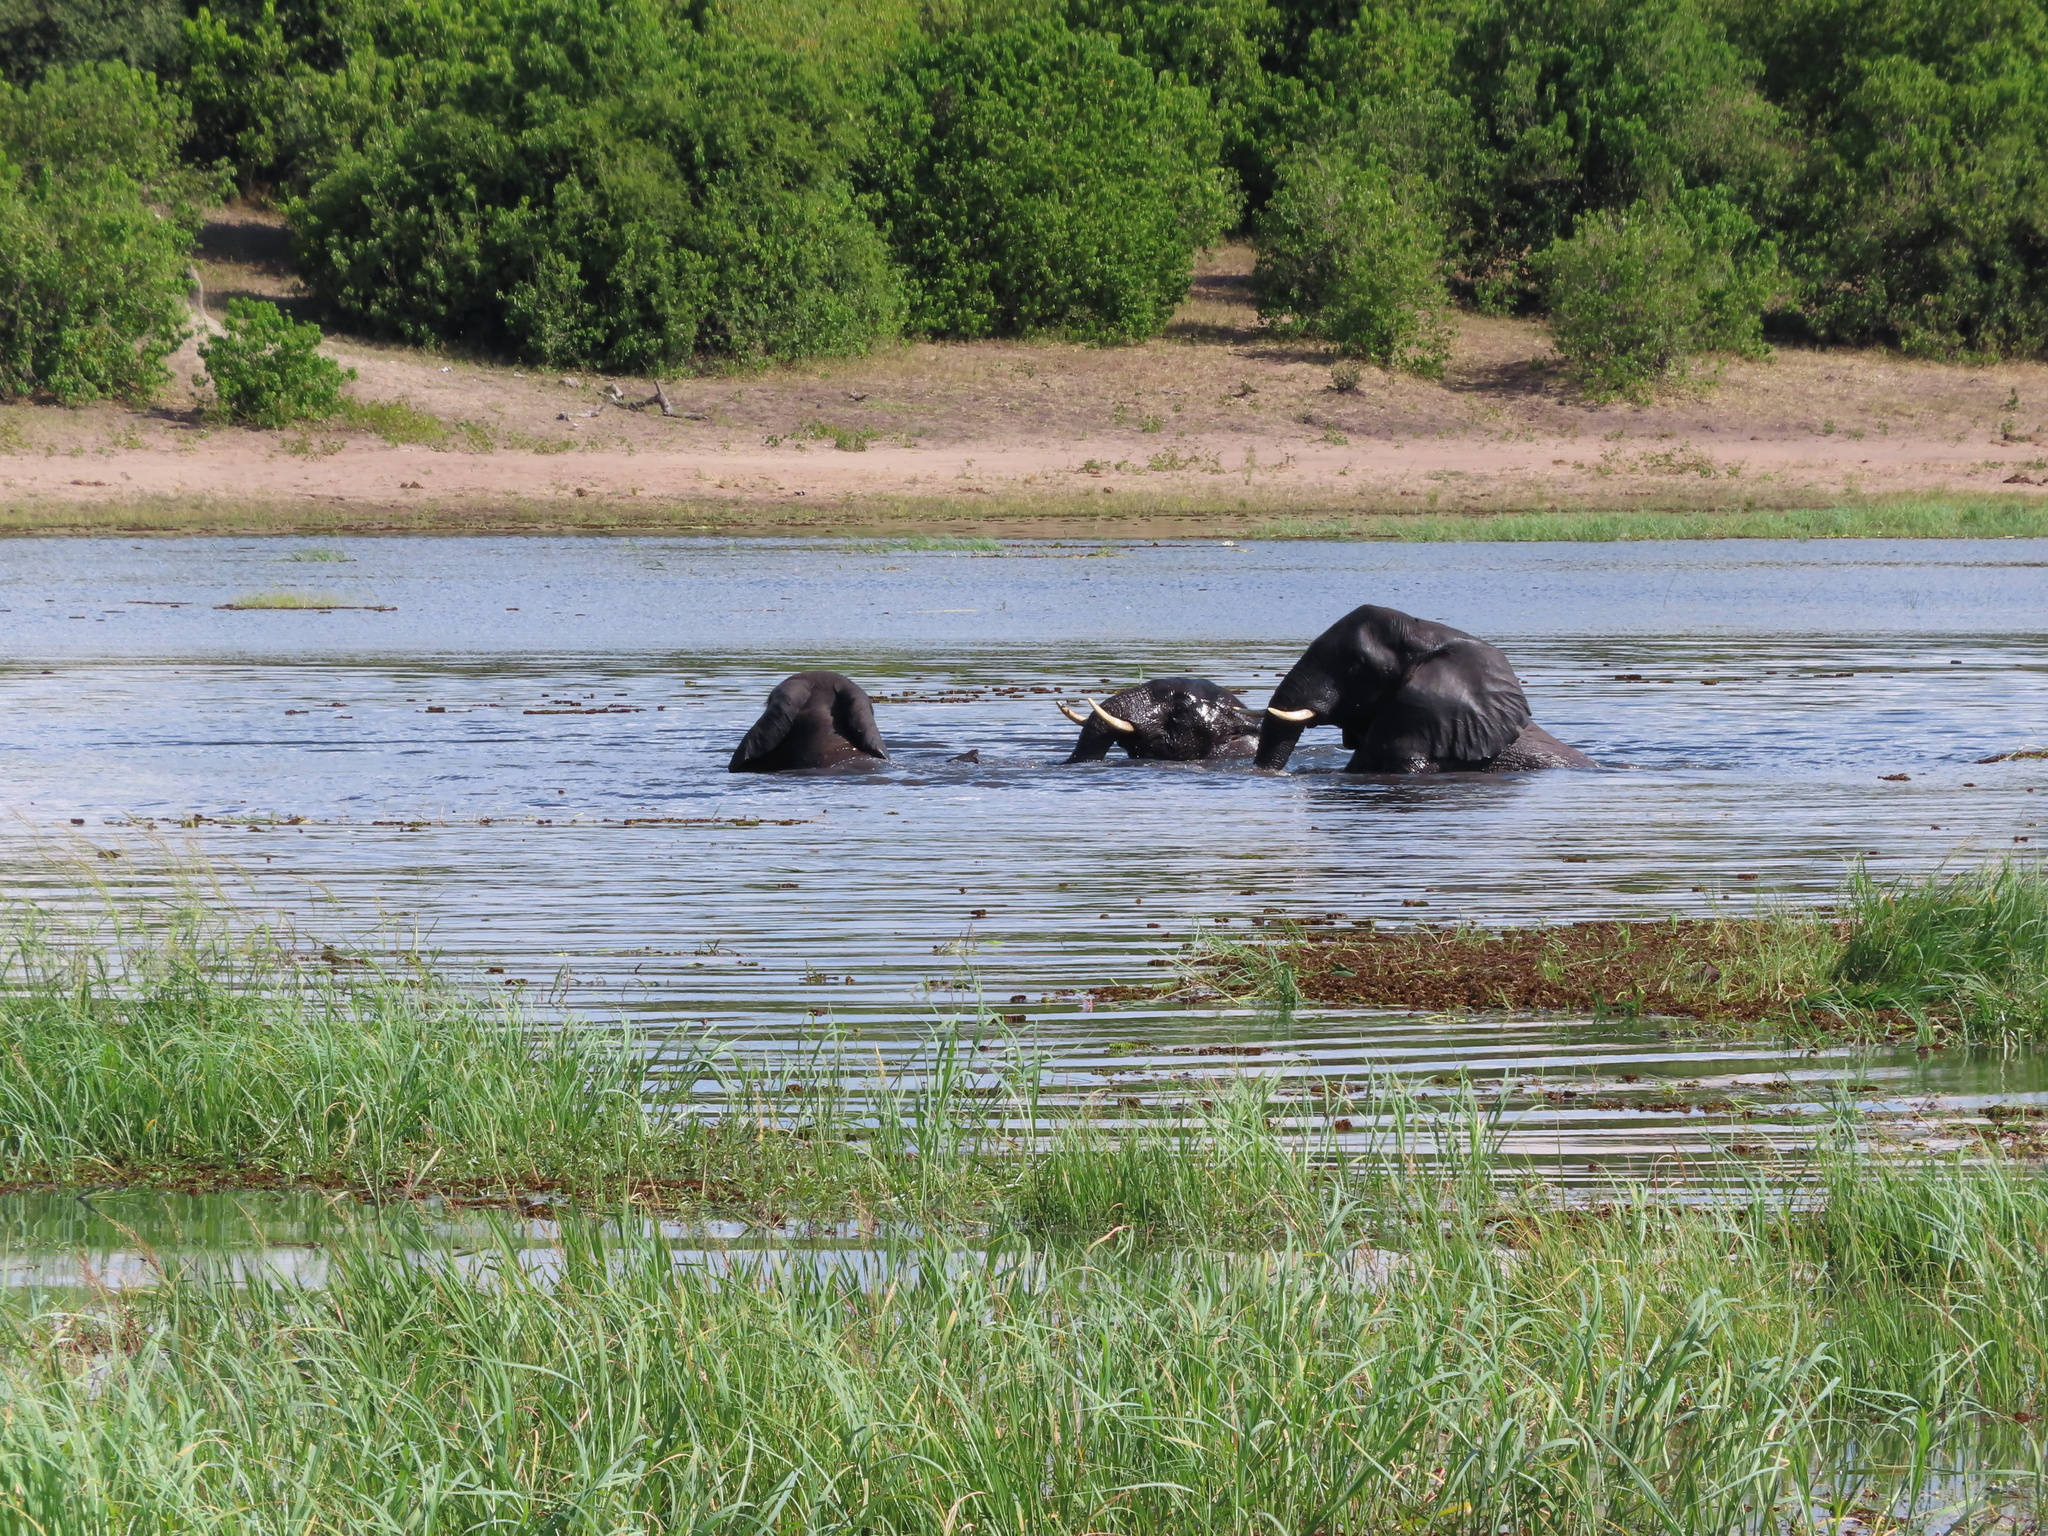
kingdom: Animalia
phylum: Chordata
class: Mammalia
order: Proboscidea
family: Elephantidae
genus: Loxodonta
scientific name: Loxodonta africana
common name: African elephant
